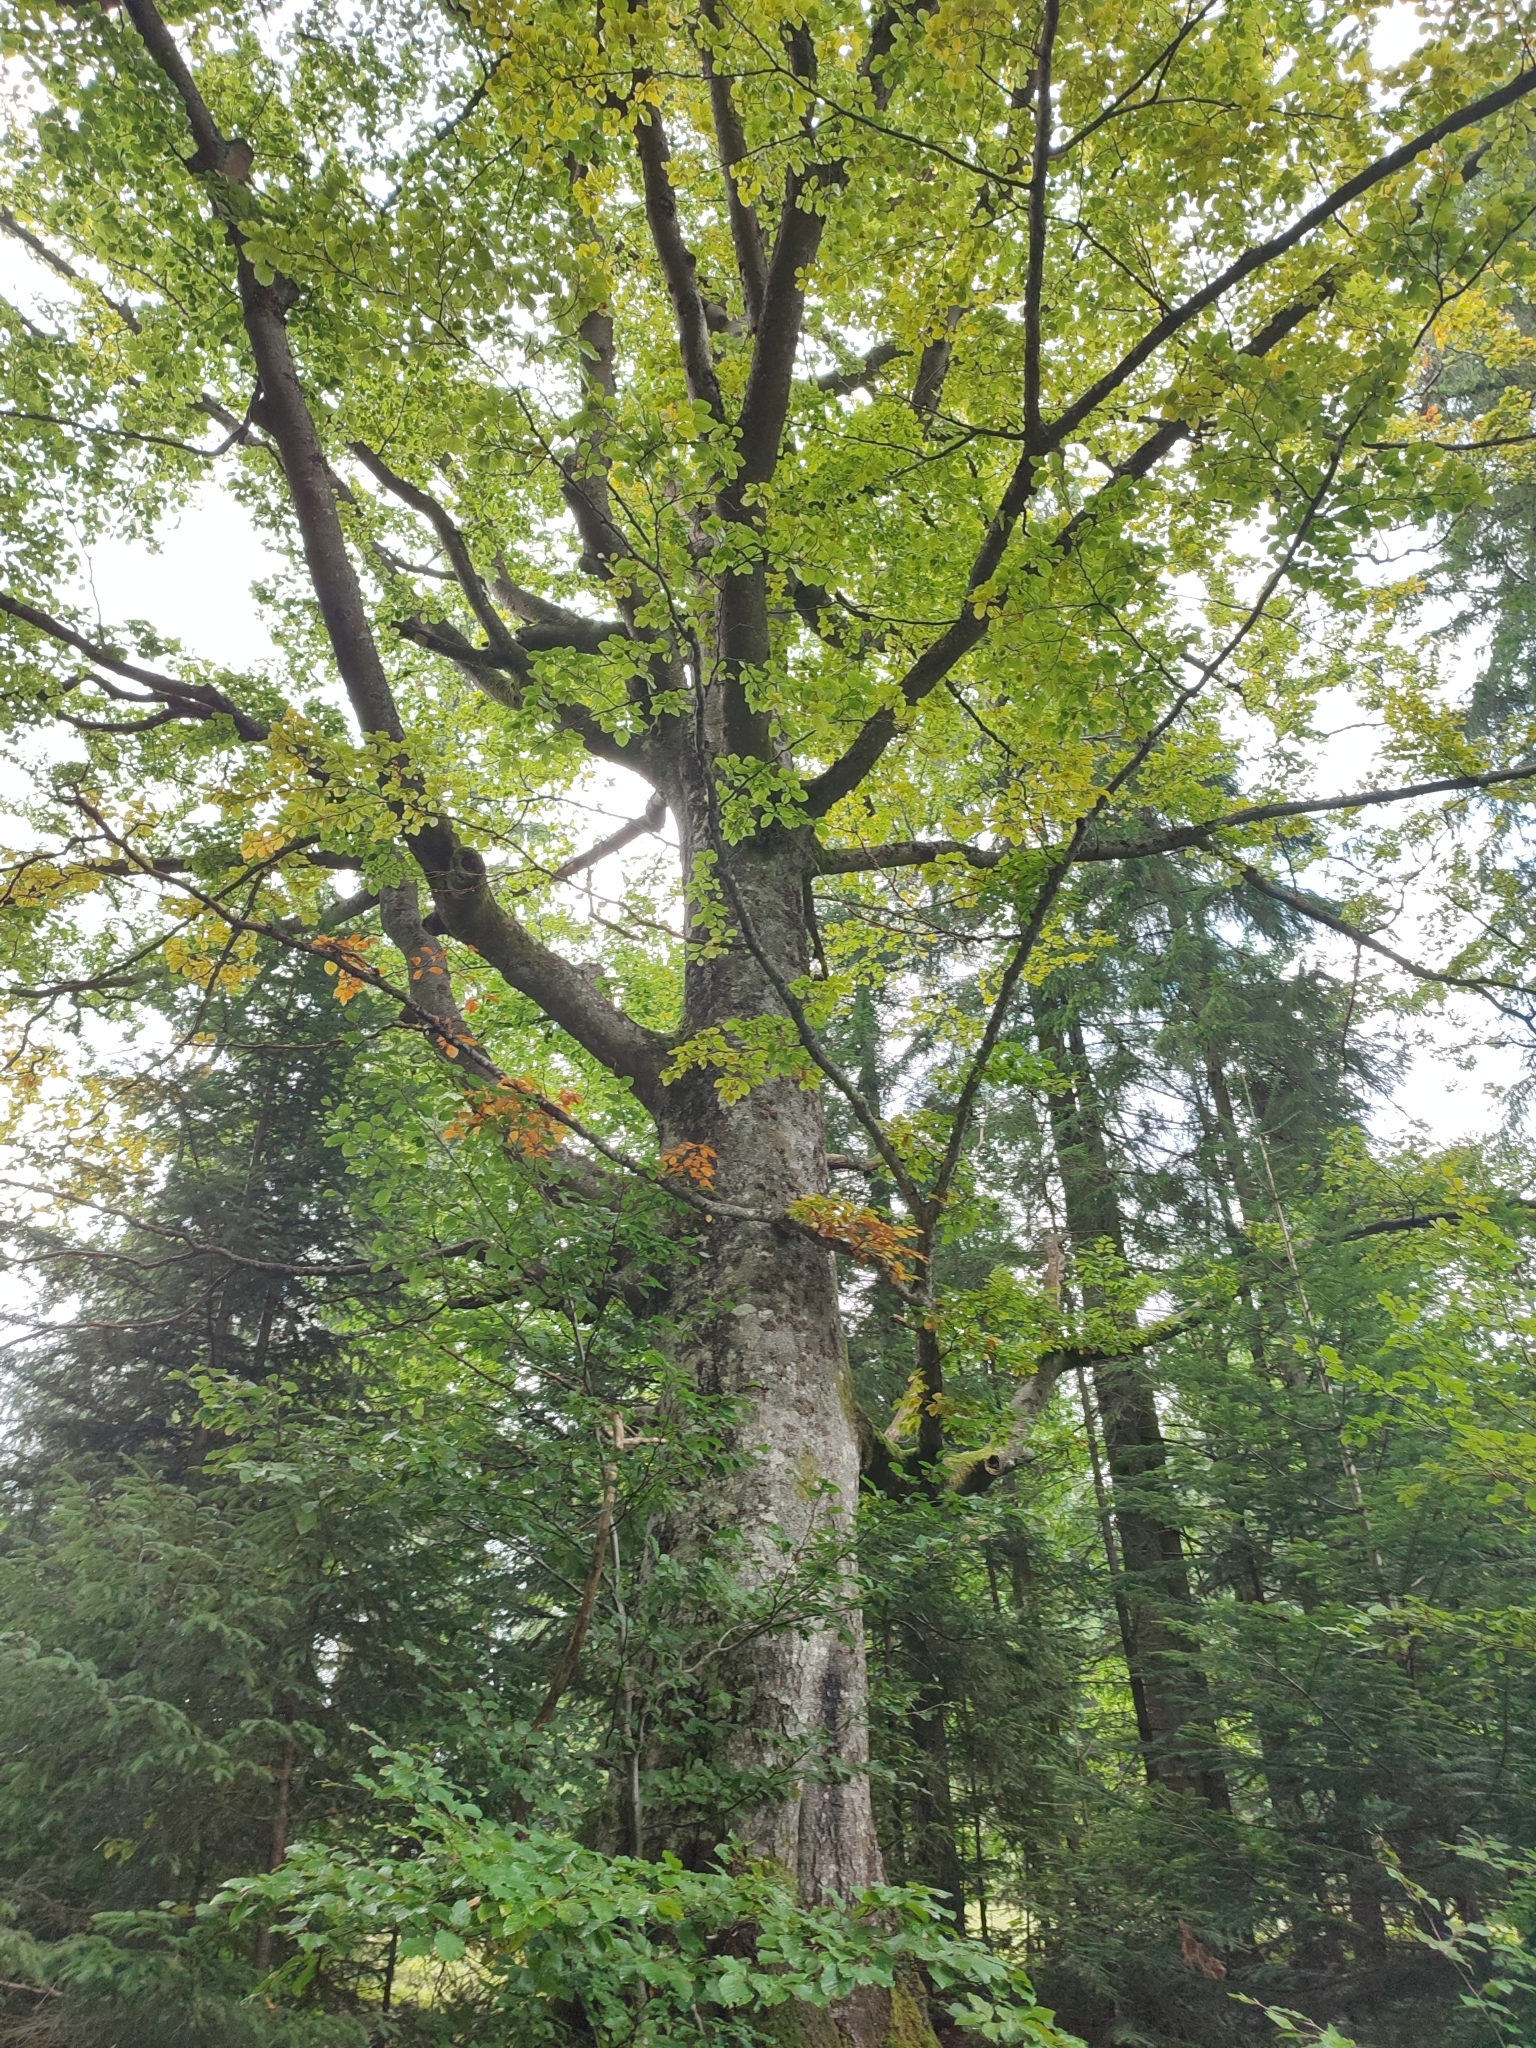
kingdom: Plantae
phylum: Tracheophyta
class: Magnoliopsida
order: Fagales
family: Fagaceae
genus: Fagus
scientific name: Fagus sylvatica
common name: Beech
